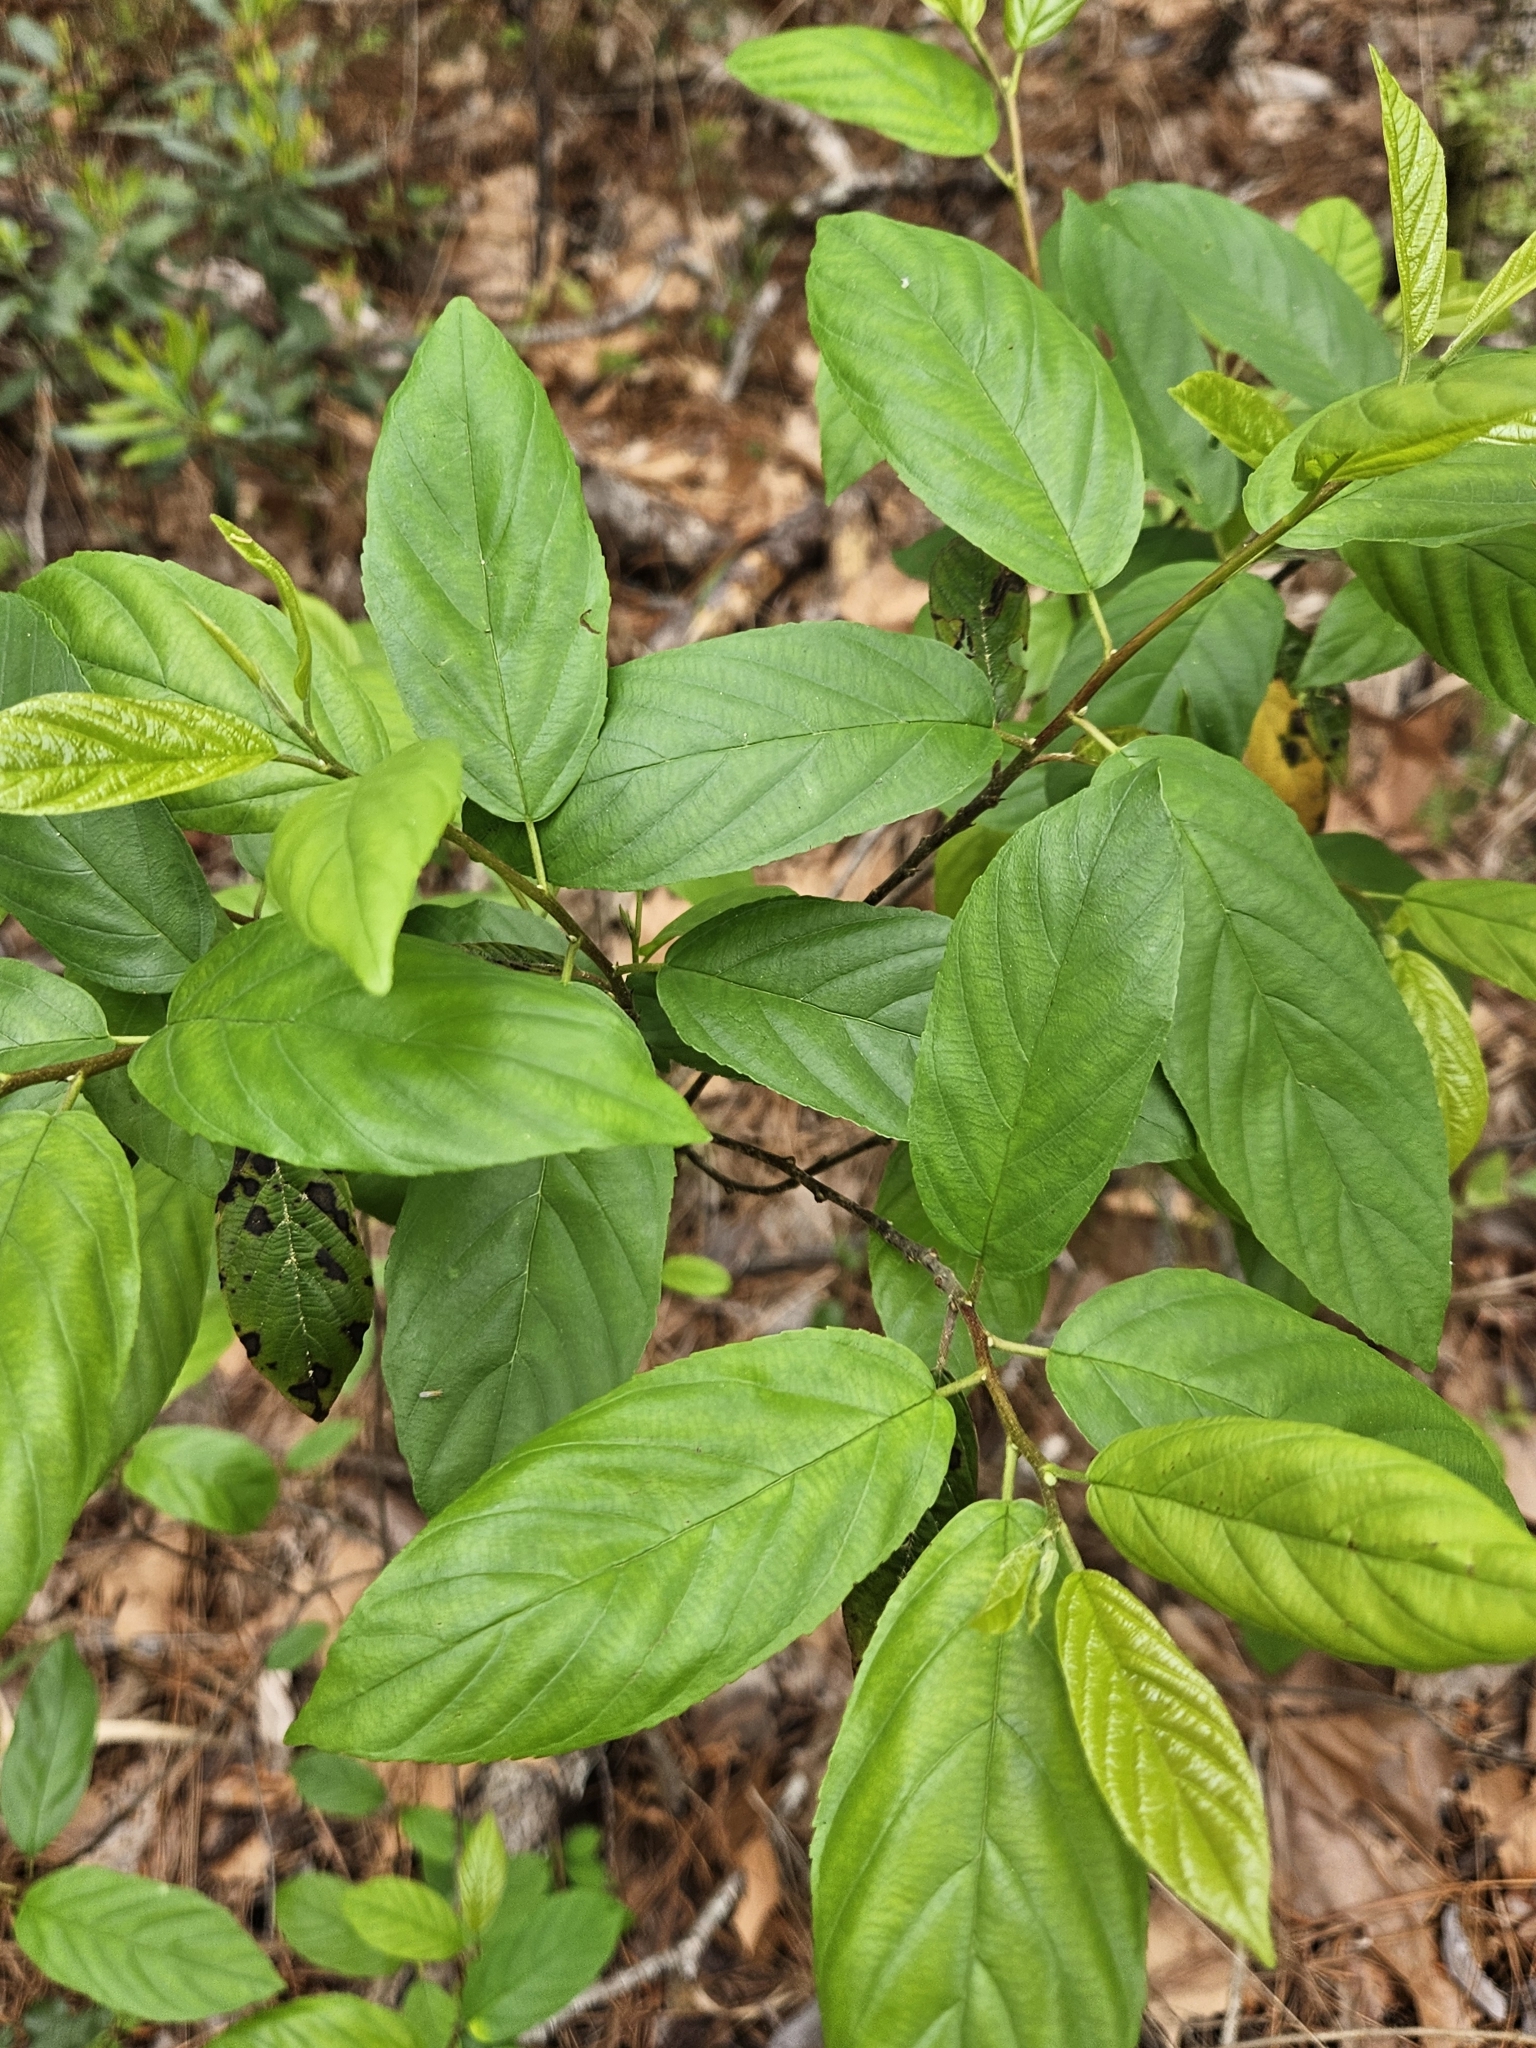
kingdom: Plantae
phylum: Tracheophyta
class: Magnoliopsida
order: Rosales
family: Rhamnaceae
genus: Frangula
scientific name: Frangula caroliniana
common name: Carolina buckthorn
